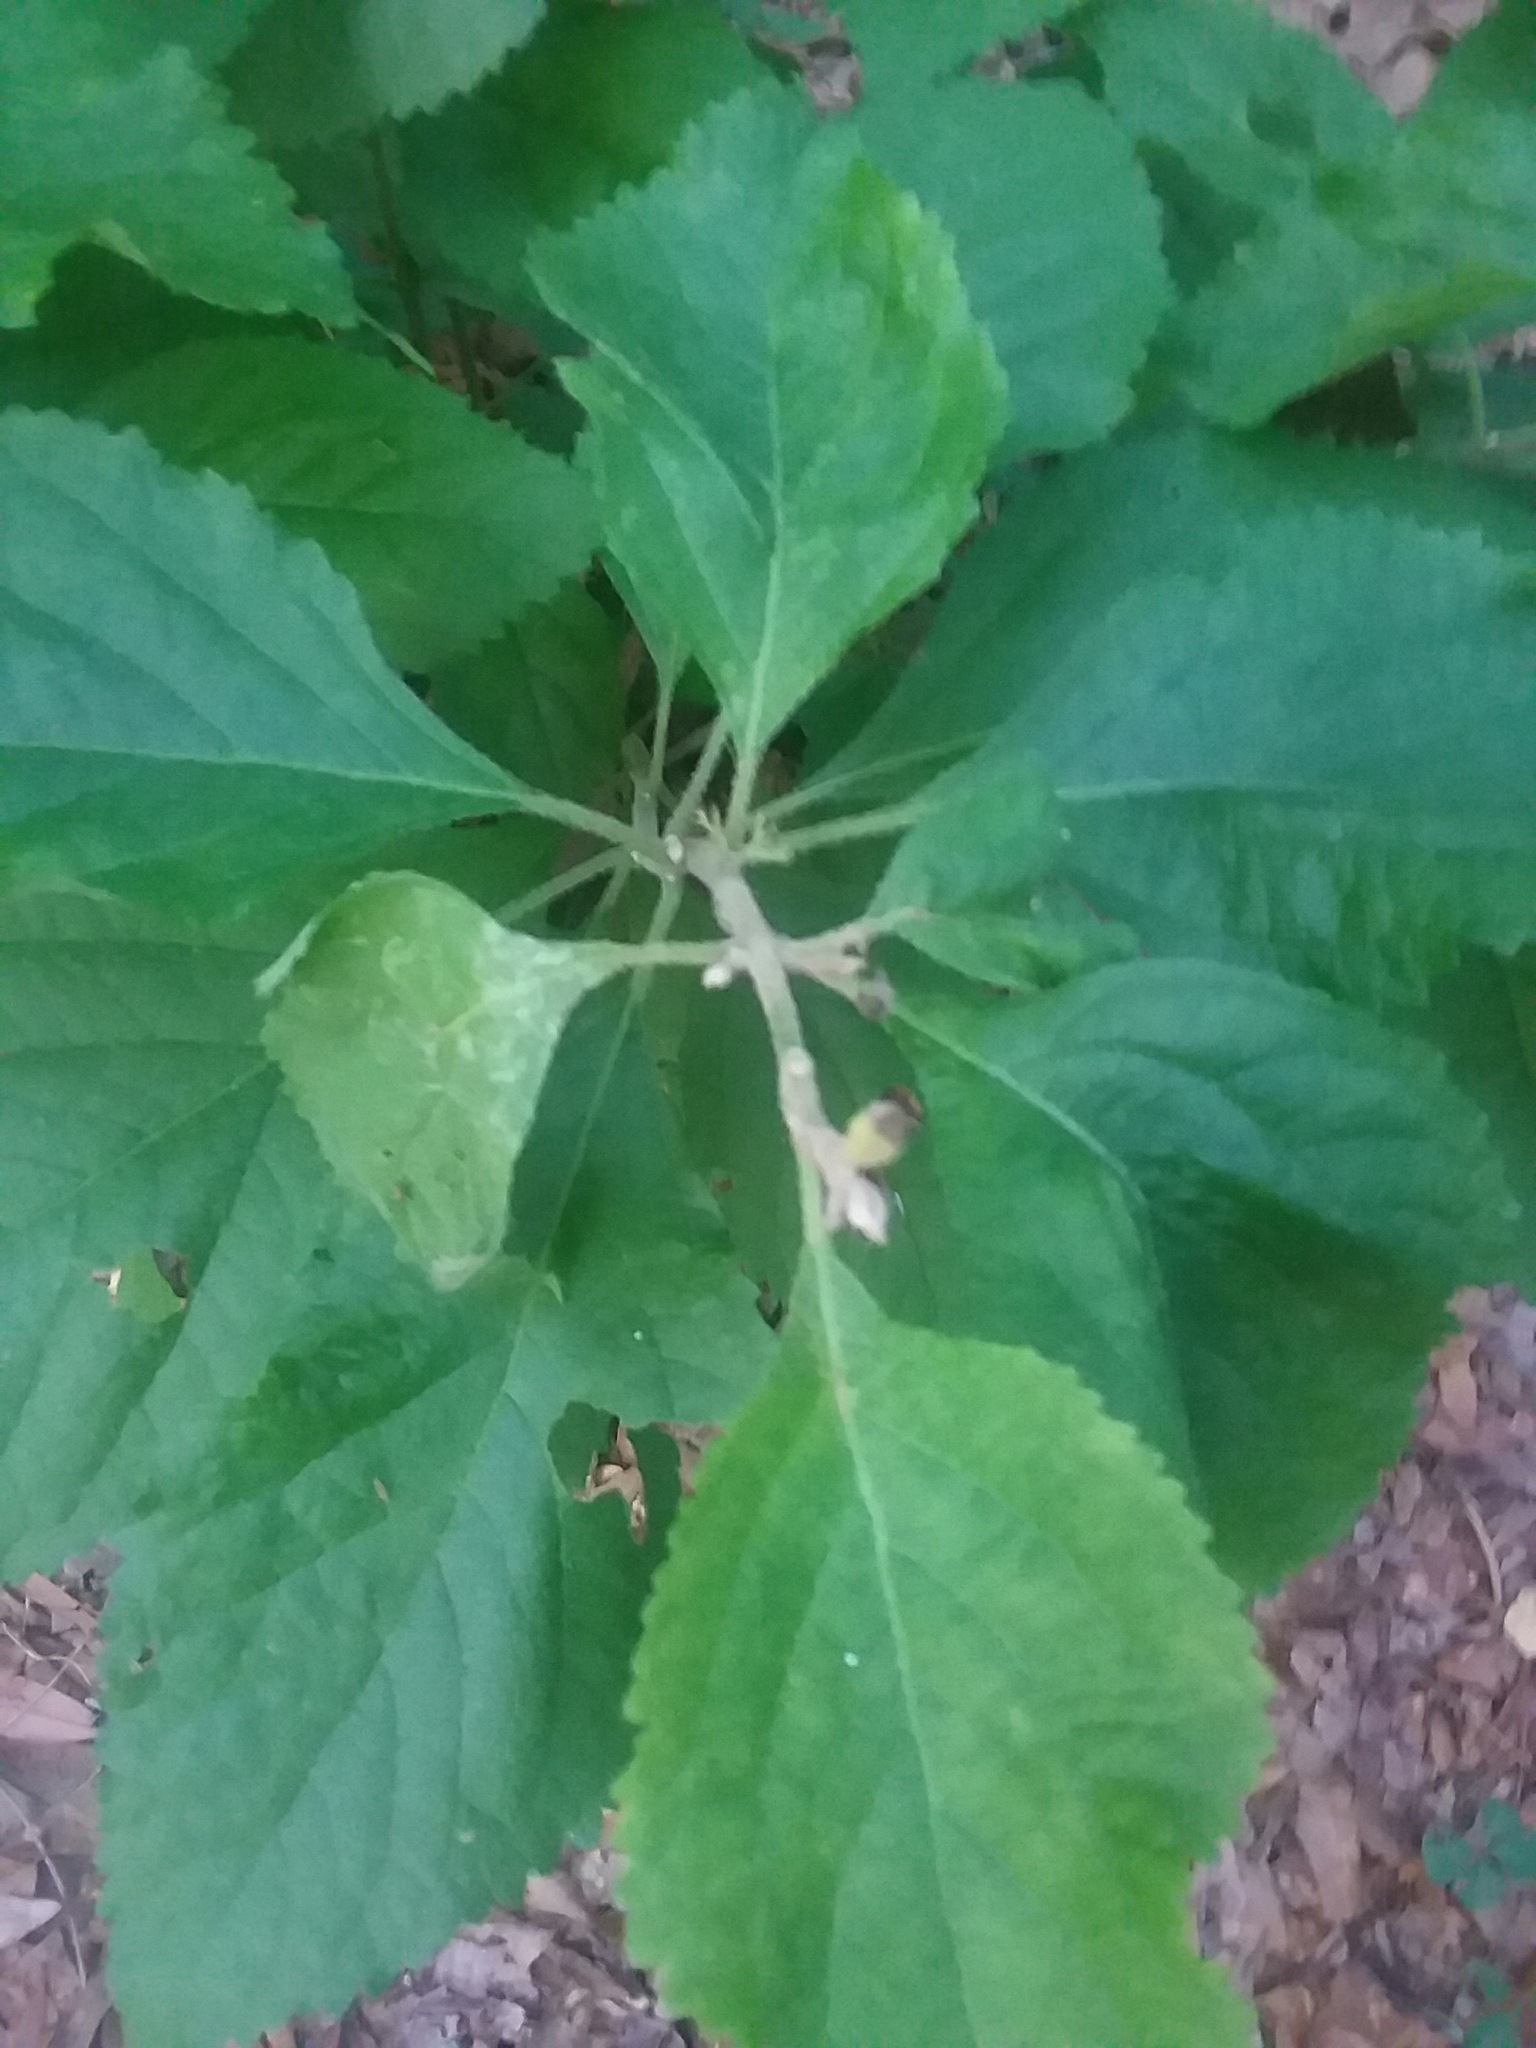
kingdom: Plantae
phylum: Tracheophyta
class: Magnoliopsida
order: Lamiales
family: Lamiaceae
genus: Callicarpa
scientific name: Callicarpa americana
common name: American beautyberry
